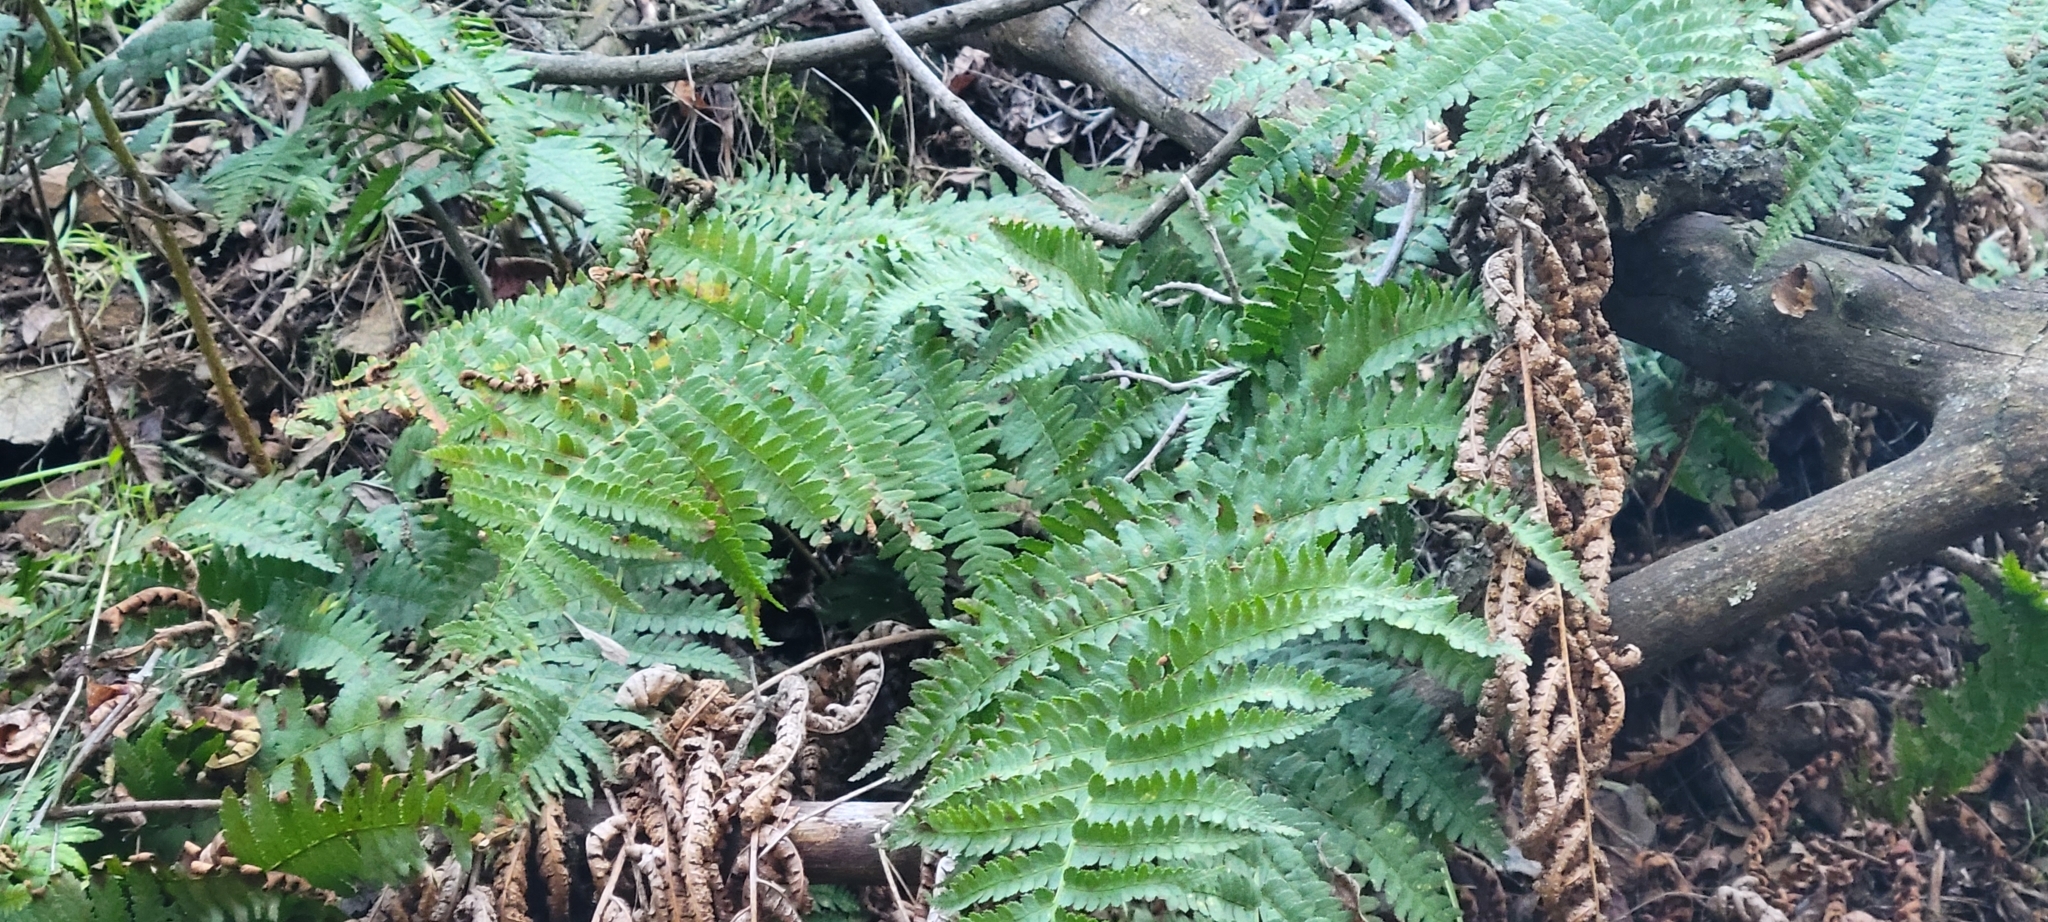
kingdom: Plantae
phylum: Tracheophyta
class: Polypodiopsida
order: Polypodiales
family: Dryopteridaceae
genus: Dryopteris
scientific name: Dryopteris arguta
